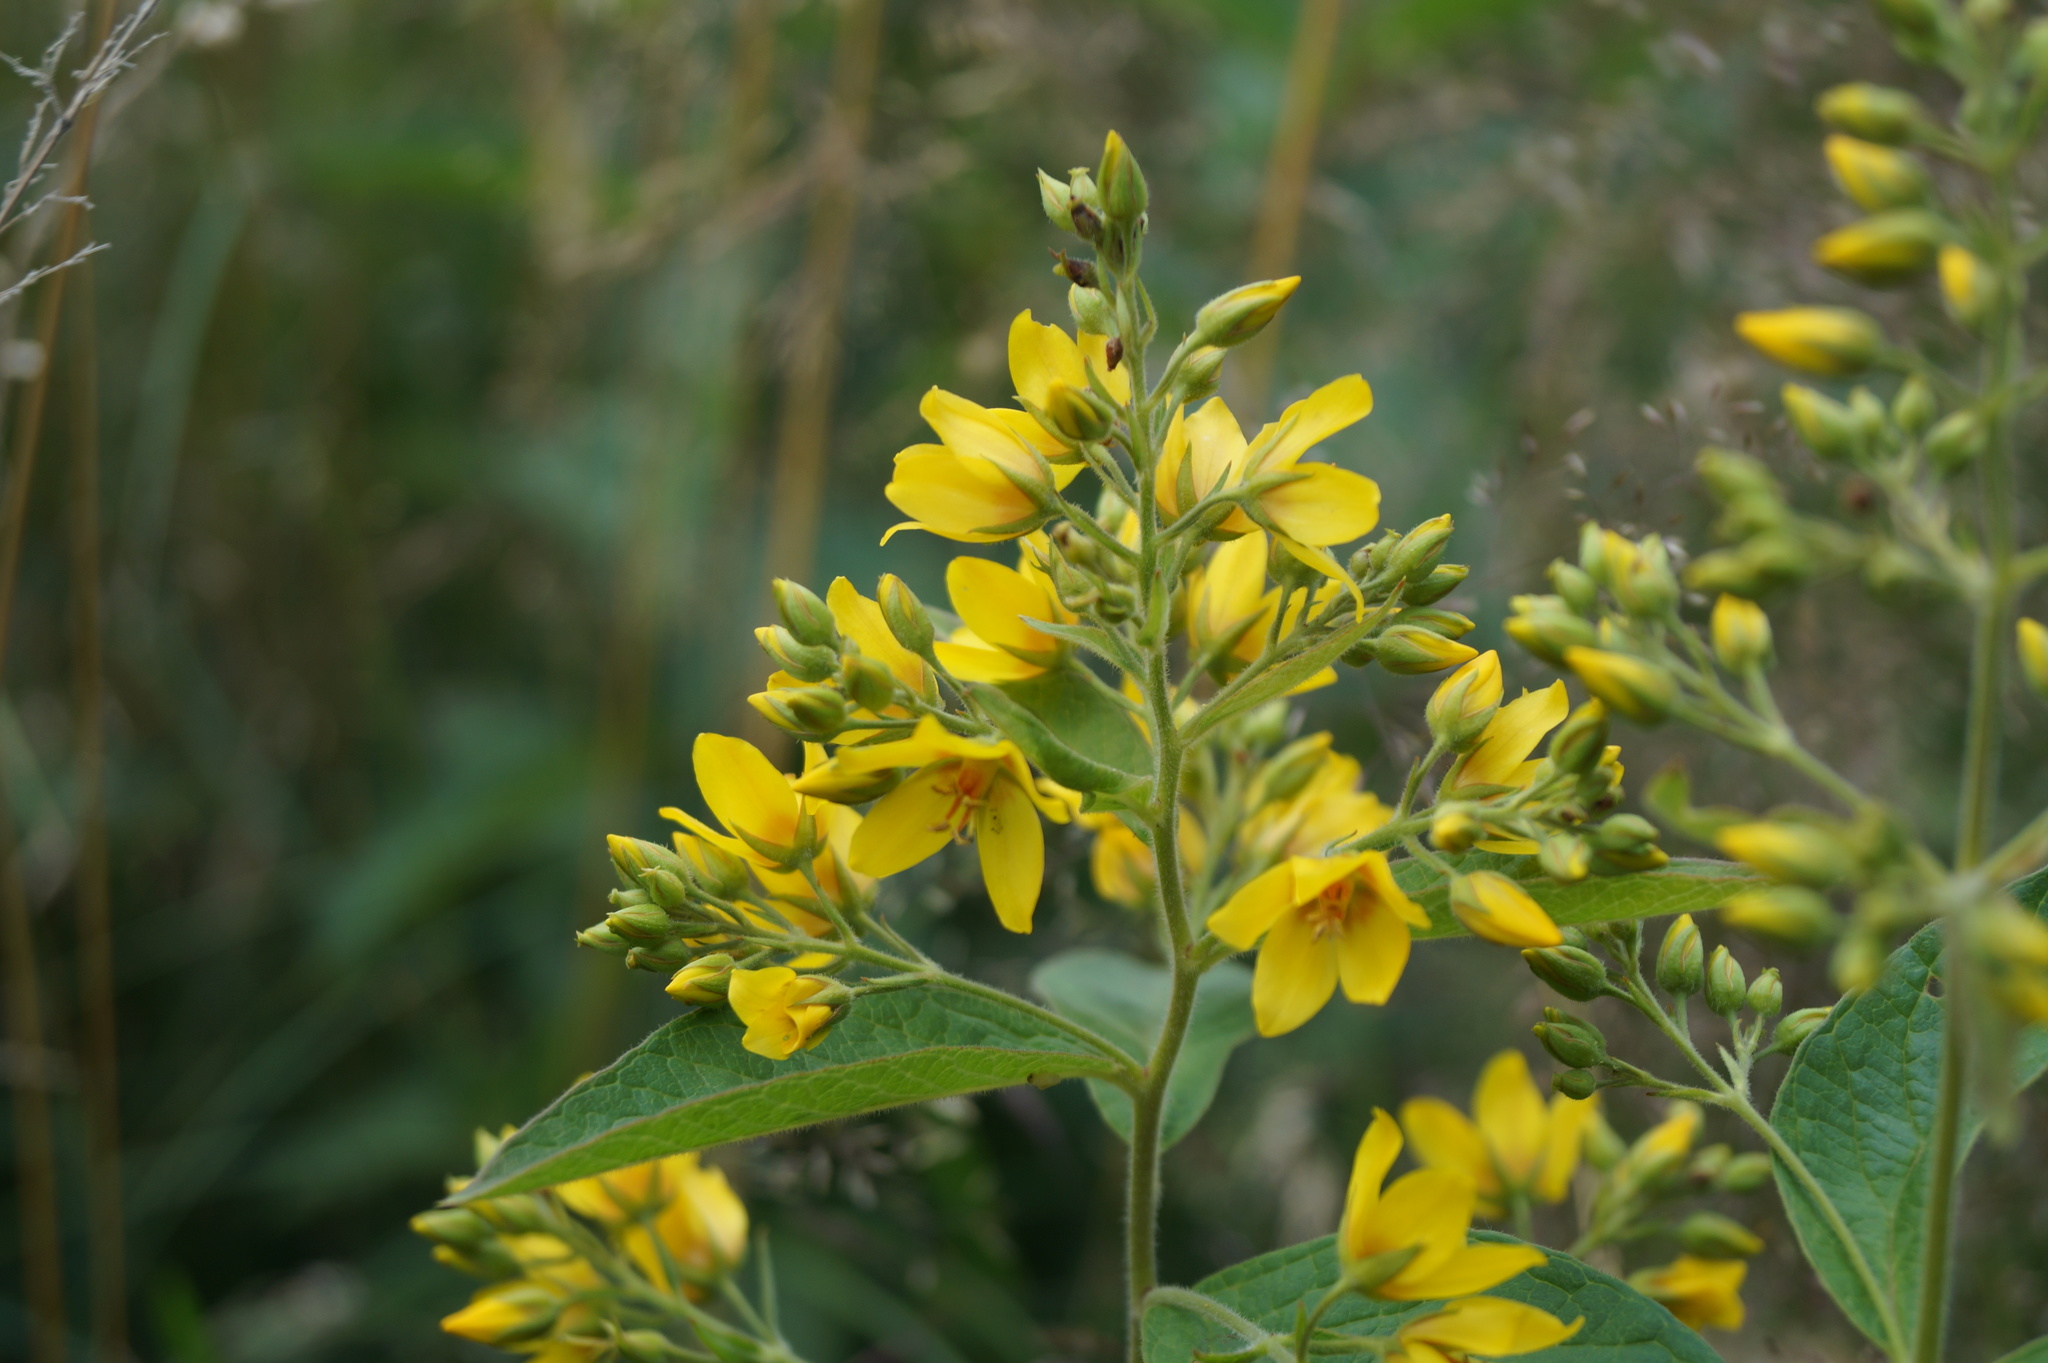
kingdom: Plantae
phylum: Tracheophyta
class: Magnoliopsida
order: Ericales
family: Primulaceae
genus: Lysimachia
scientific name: Lysimachia vulgaris
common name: Yellow loosestrife
